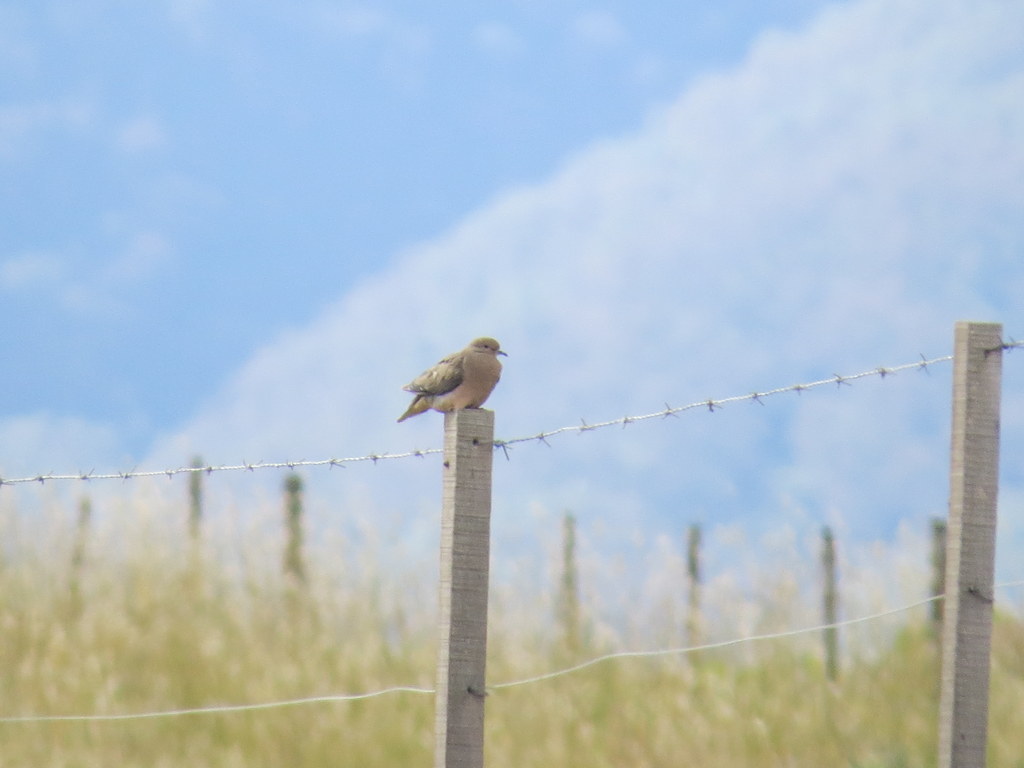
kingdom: Animalia
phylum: Chordata
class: Aves
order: Columbiformes
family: Columbidae
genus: Zenaida
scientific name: Zenaida auriculata
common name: Eared dove
